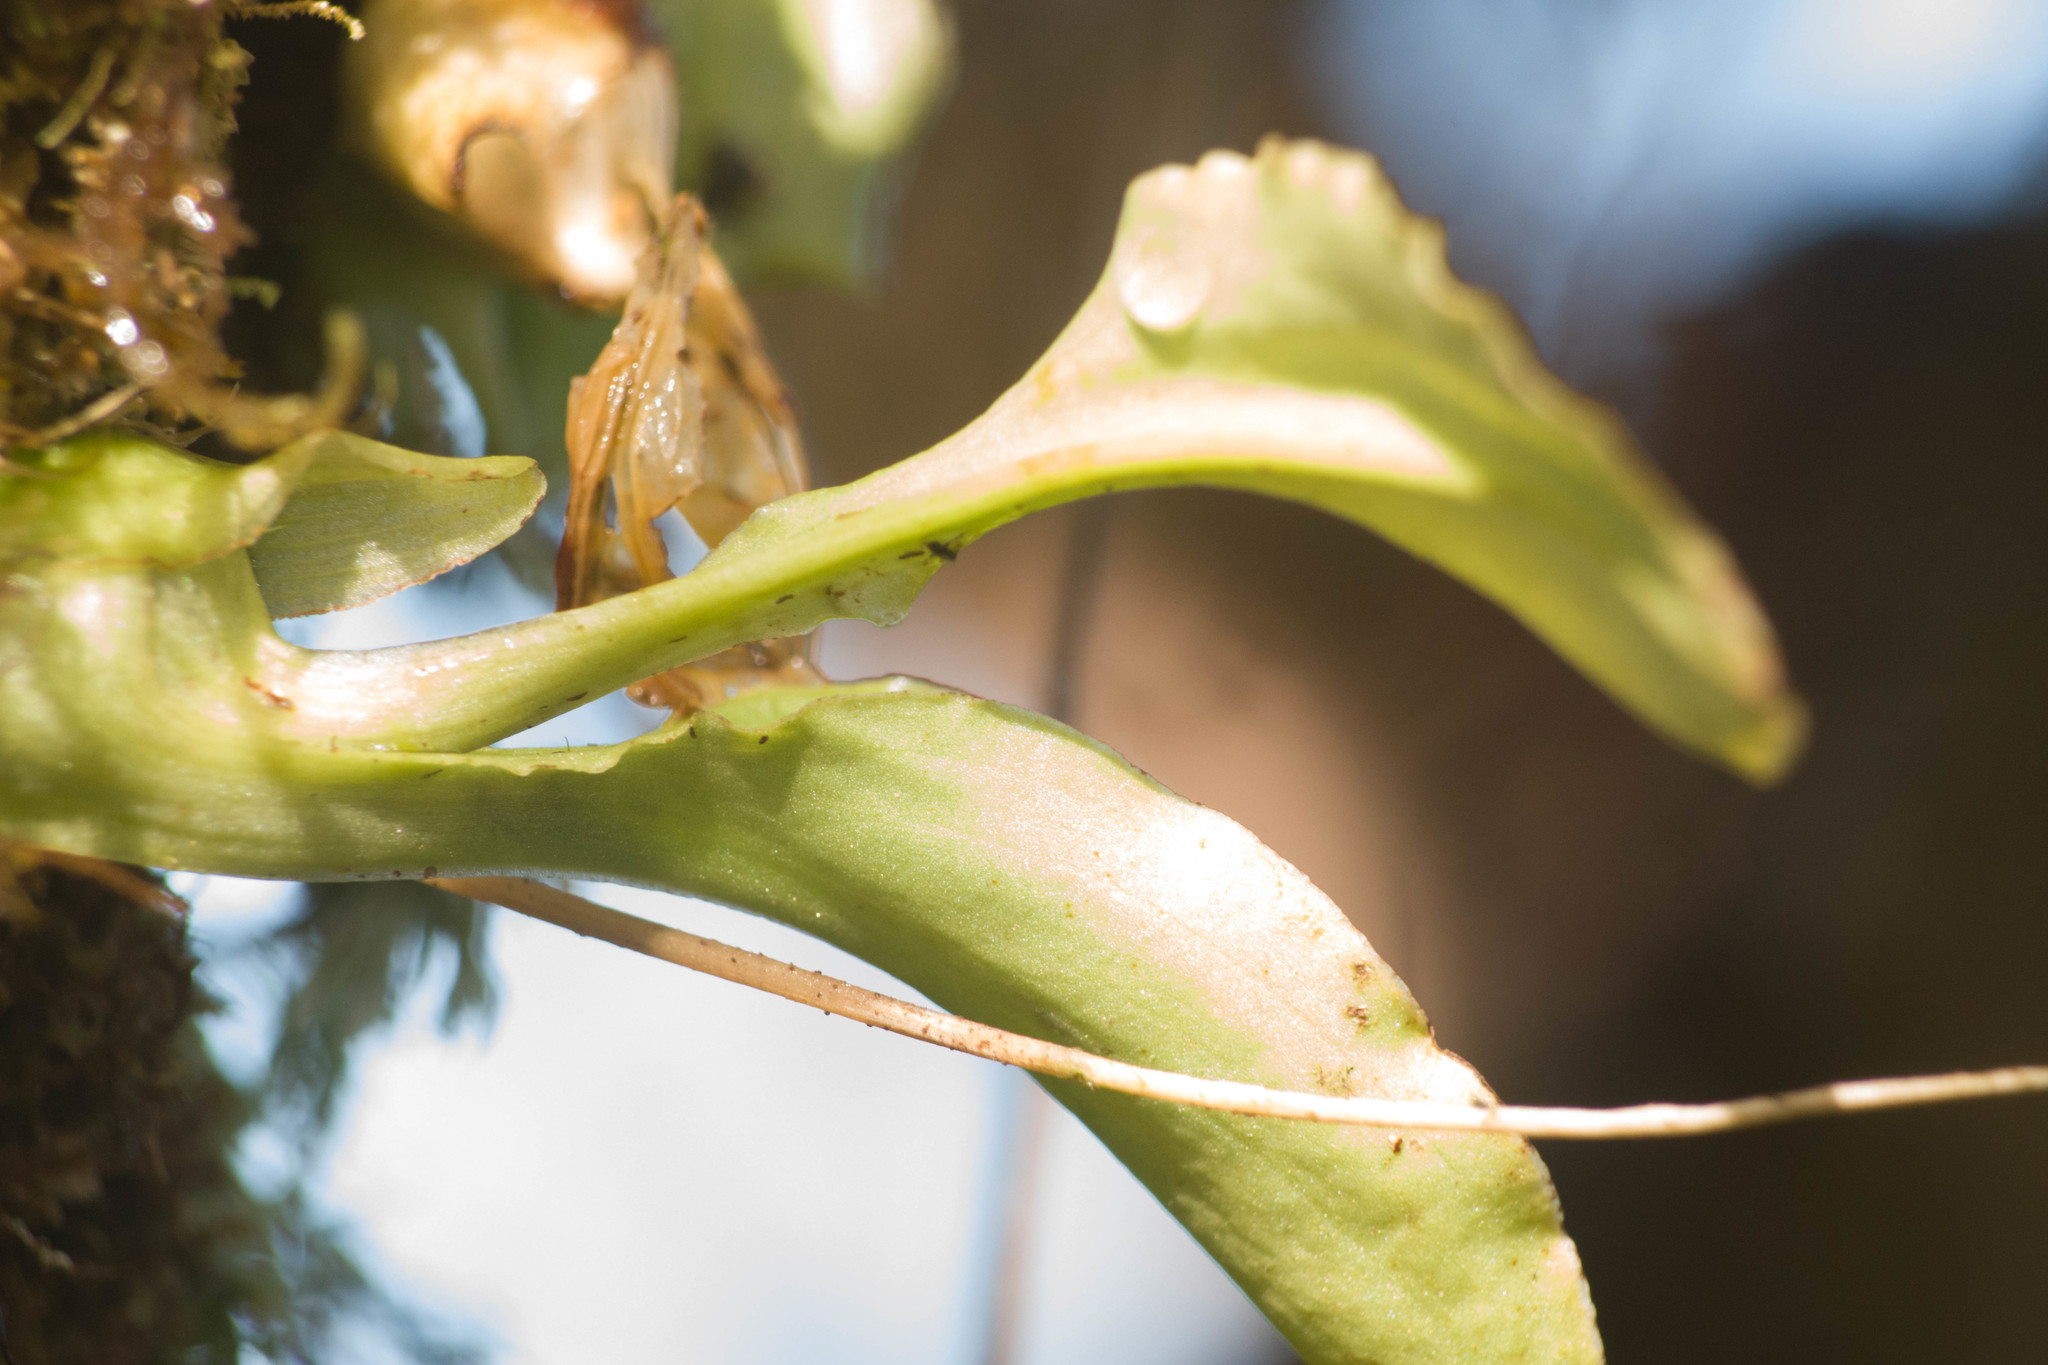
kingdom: Plantae
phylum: Tracheophyta
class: Liliopsida
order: Asparagales
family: Orchidaceae
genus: Liparis
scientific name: Liparis hawaiensis
